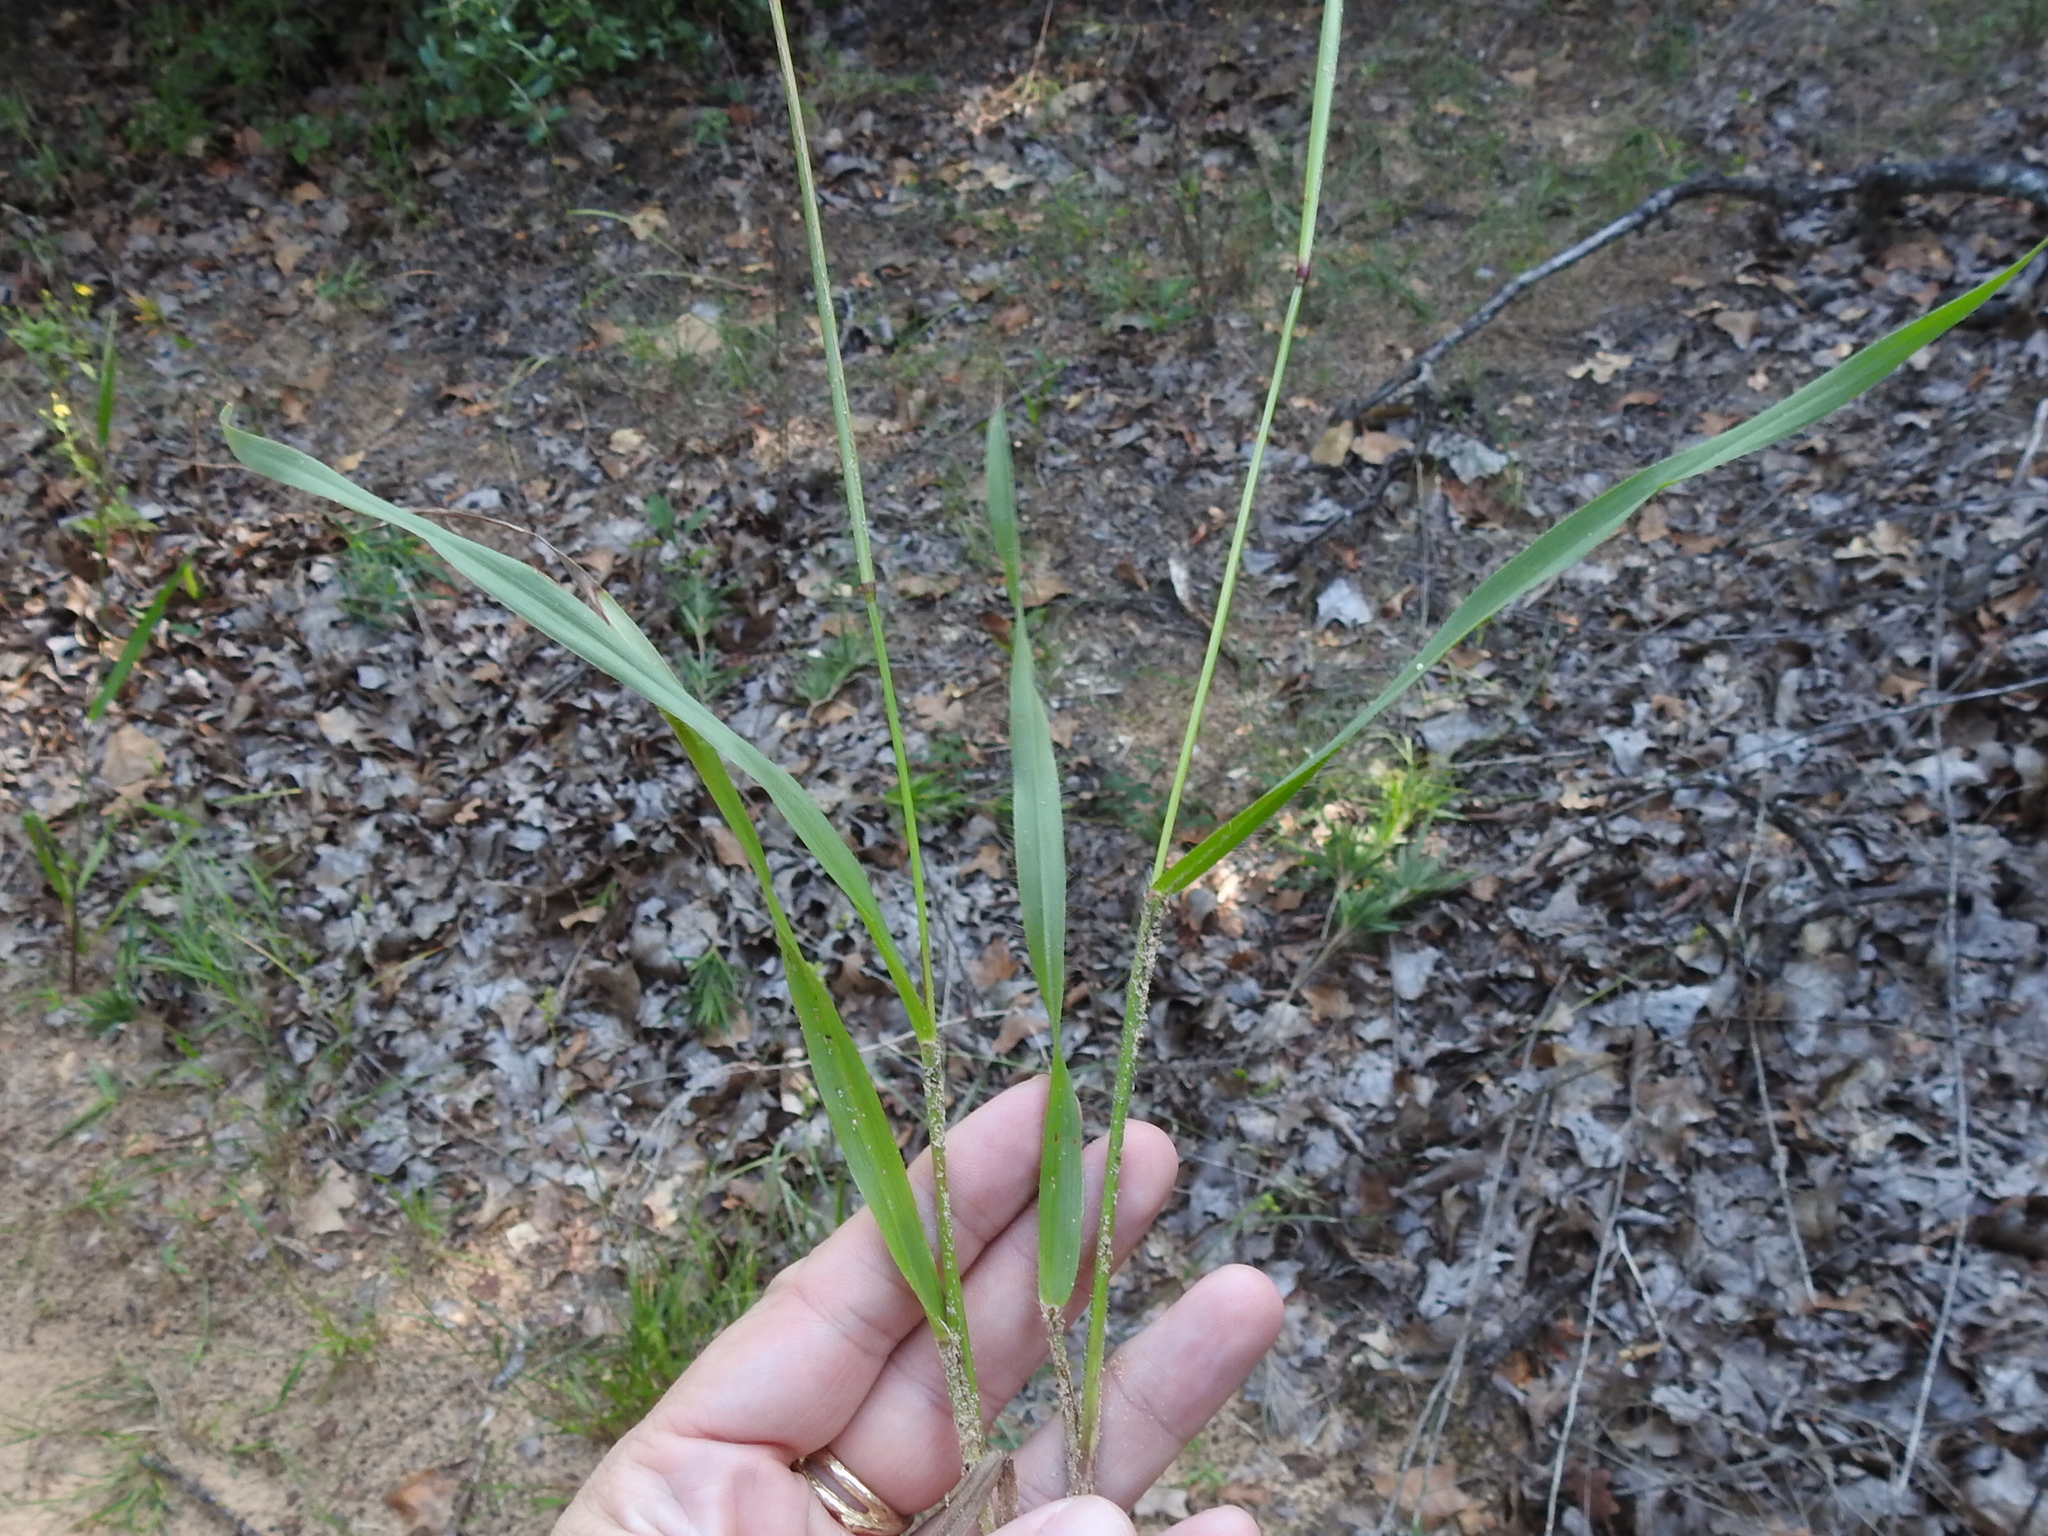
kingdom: Plantae
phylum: Tracheophyta
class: Liliopsida
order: Poales
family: Poaceae
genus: Paspalum
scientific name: Paspalum setaceum
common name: Slender paspalum
